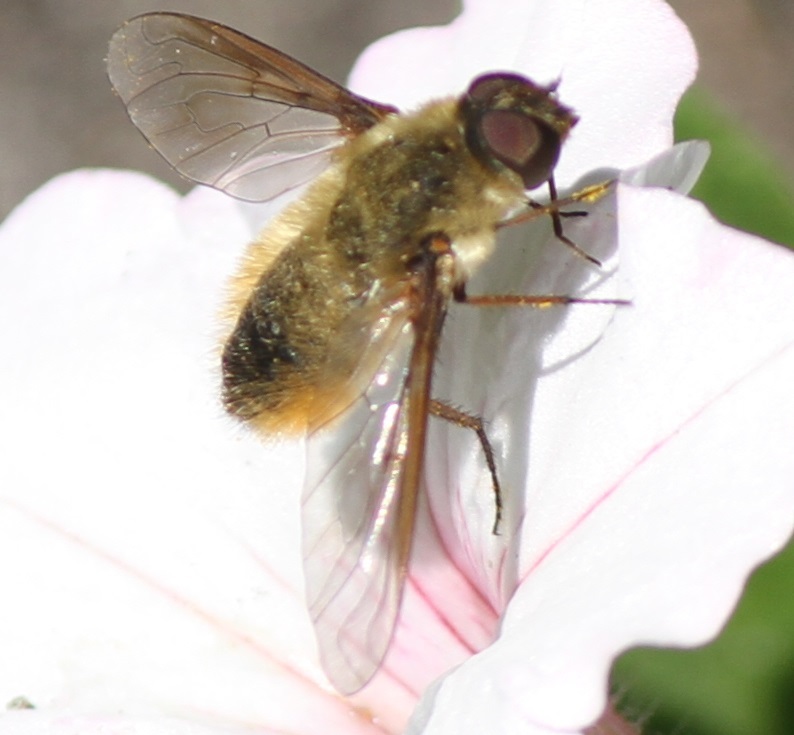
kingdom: Animalia
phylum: Arthropoda
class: Insecta
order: Diptera
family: Bombyliidae
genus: Villa
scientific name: Villa fulviana
